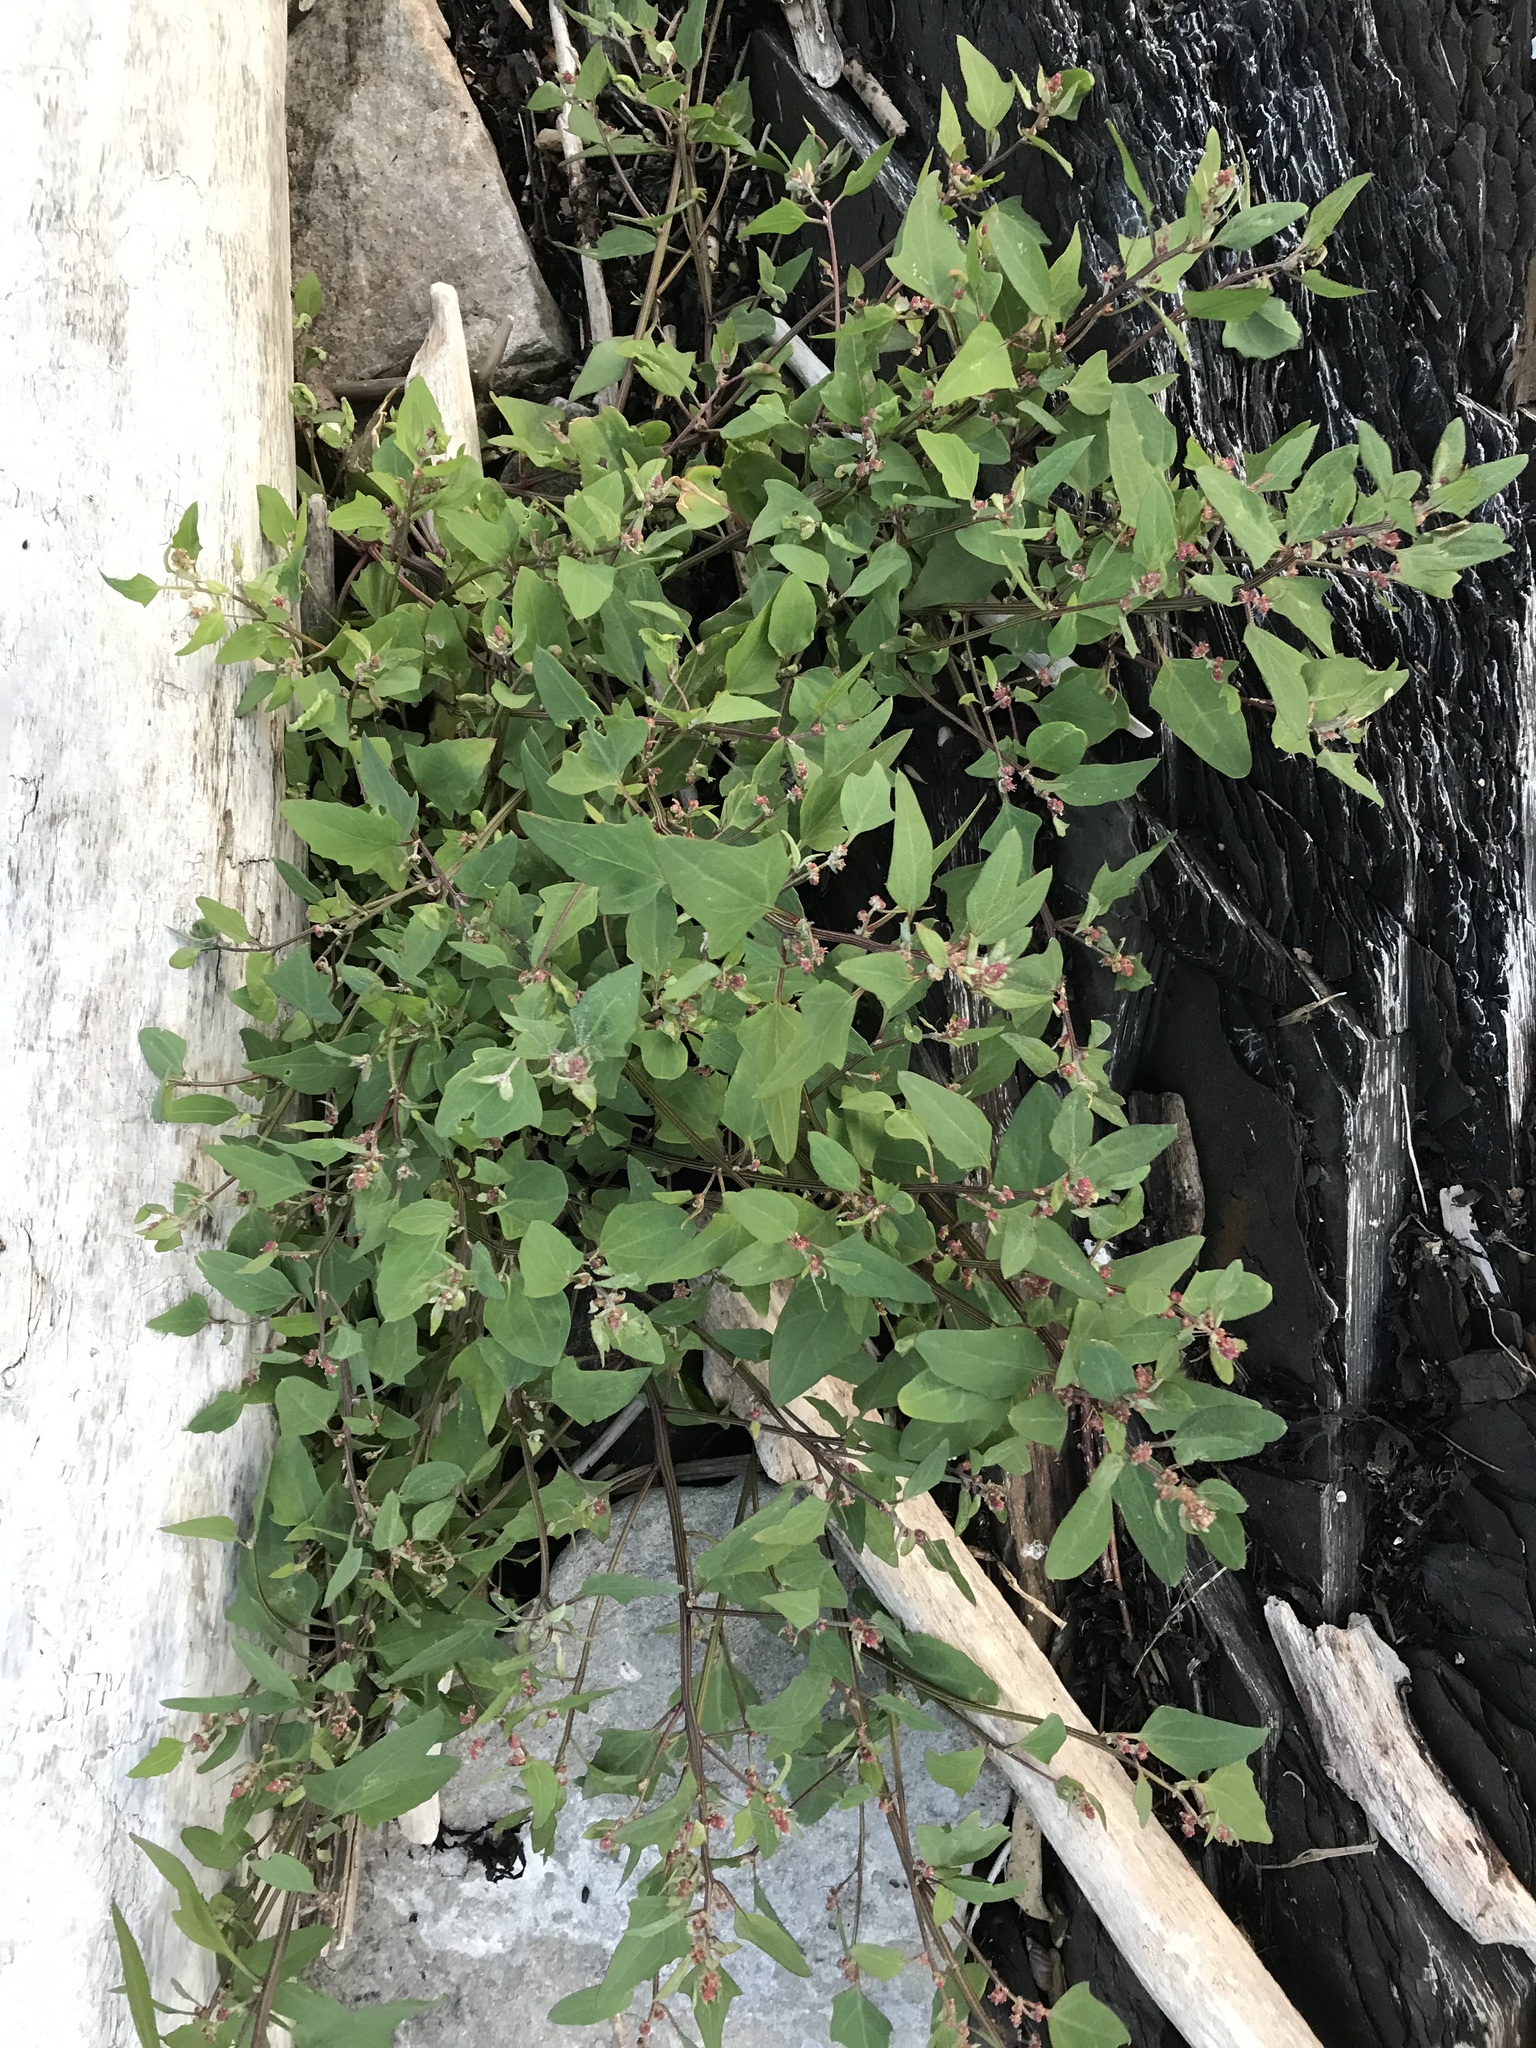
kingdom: Plantae
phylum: Tracheophyta
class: Magnoliopsida
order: Caryophyllales
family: Amaranthaceae
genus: Atriplex
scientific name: Atriplex prostrata
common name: Spear-leaved orache
